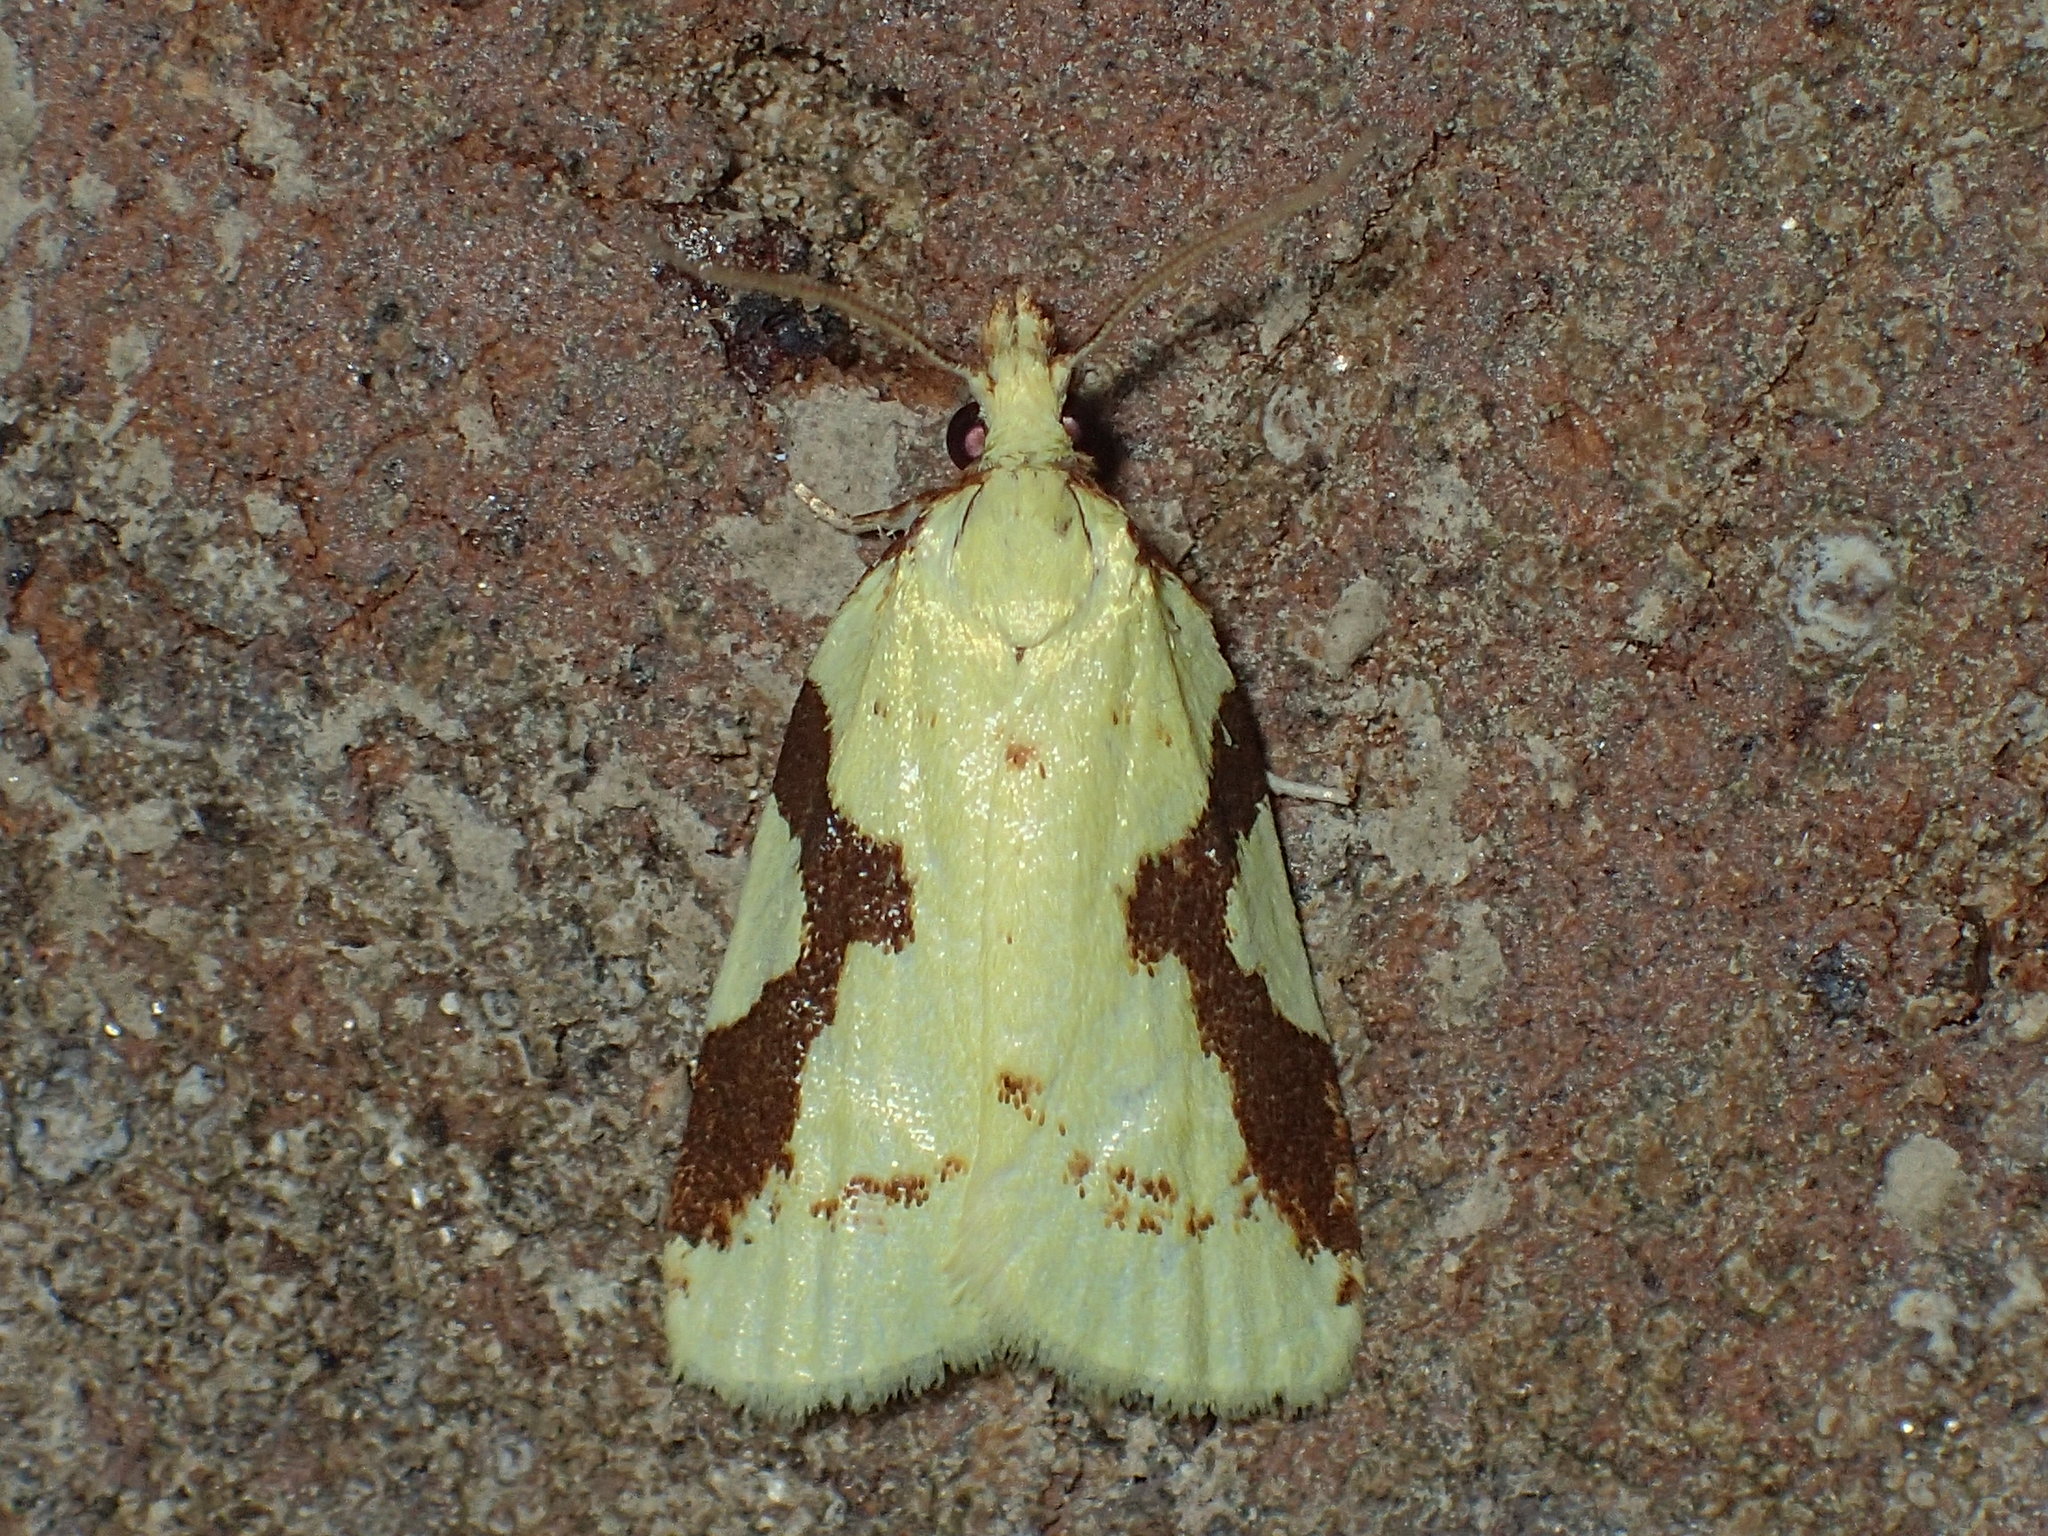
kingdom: Animalia
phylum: Arthropoda
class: Insecta
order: Lepidoptera
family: Tortricidae
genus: Cenopis
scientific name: Cenopis niveana
